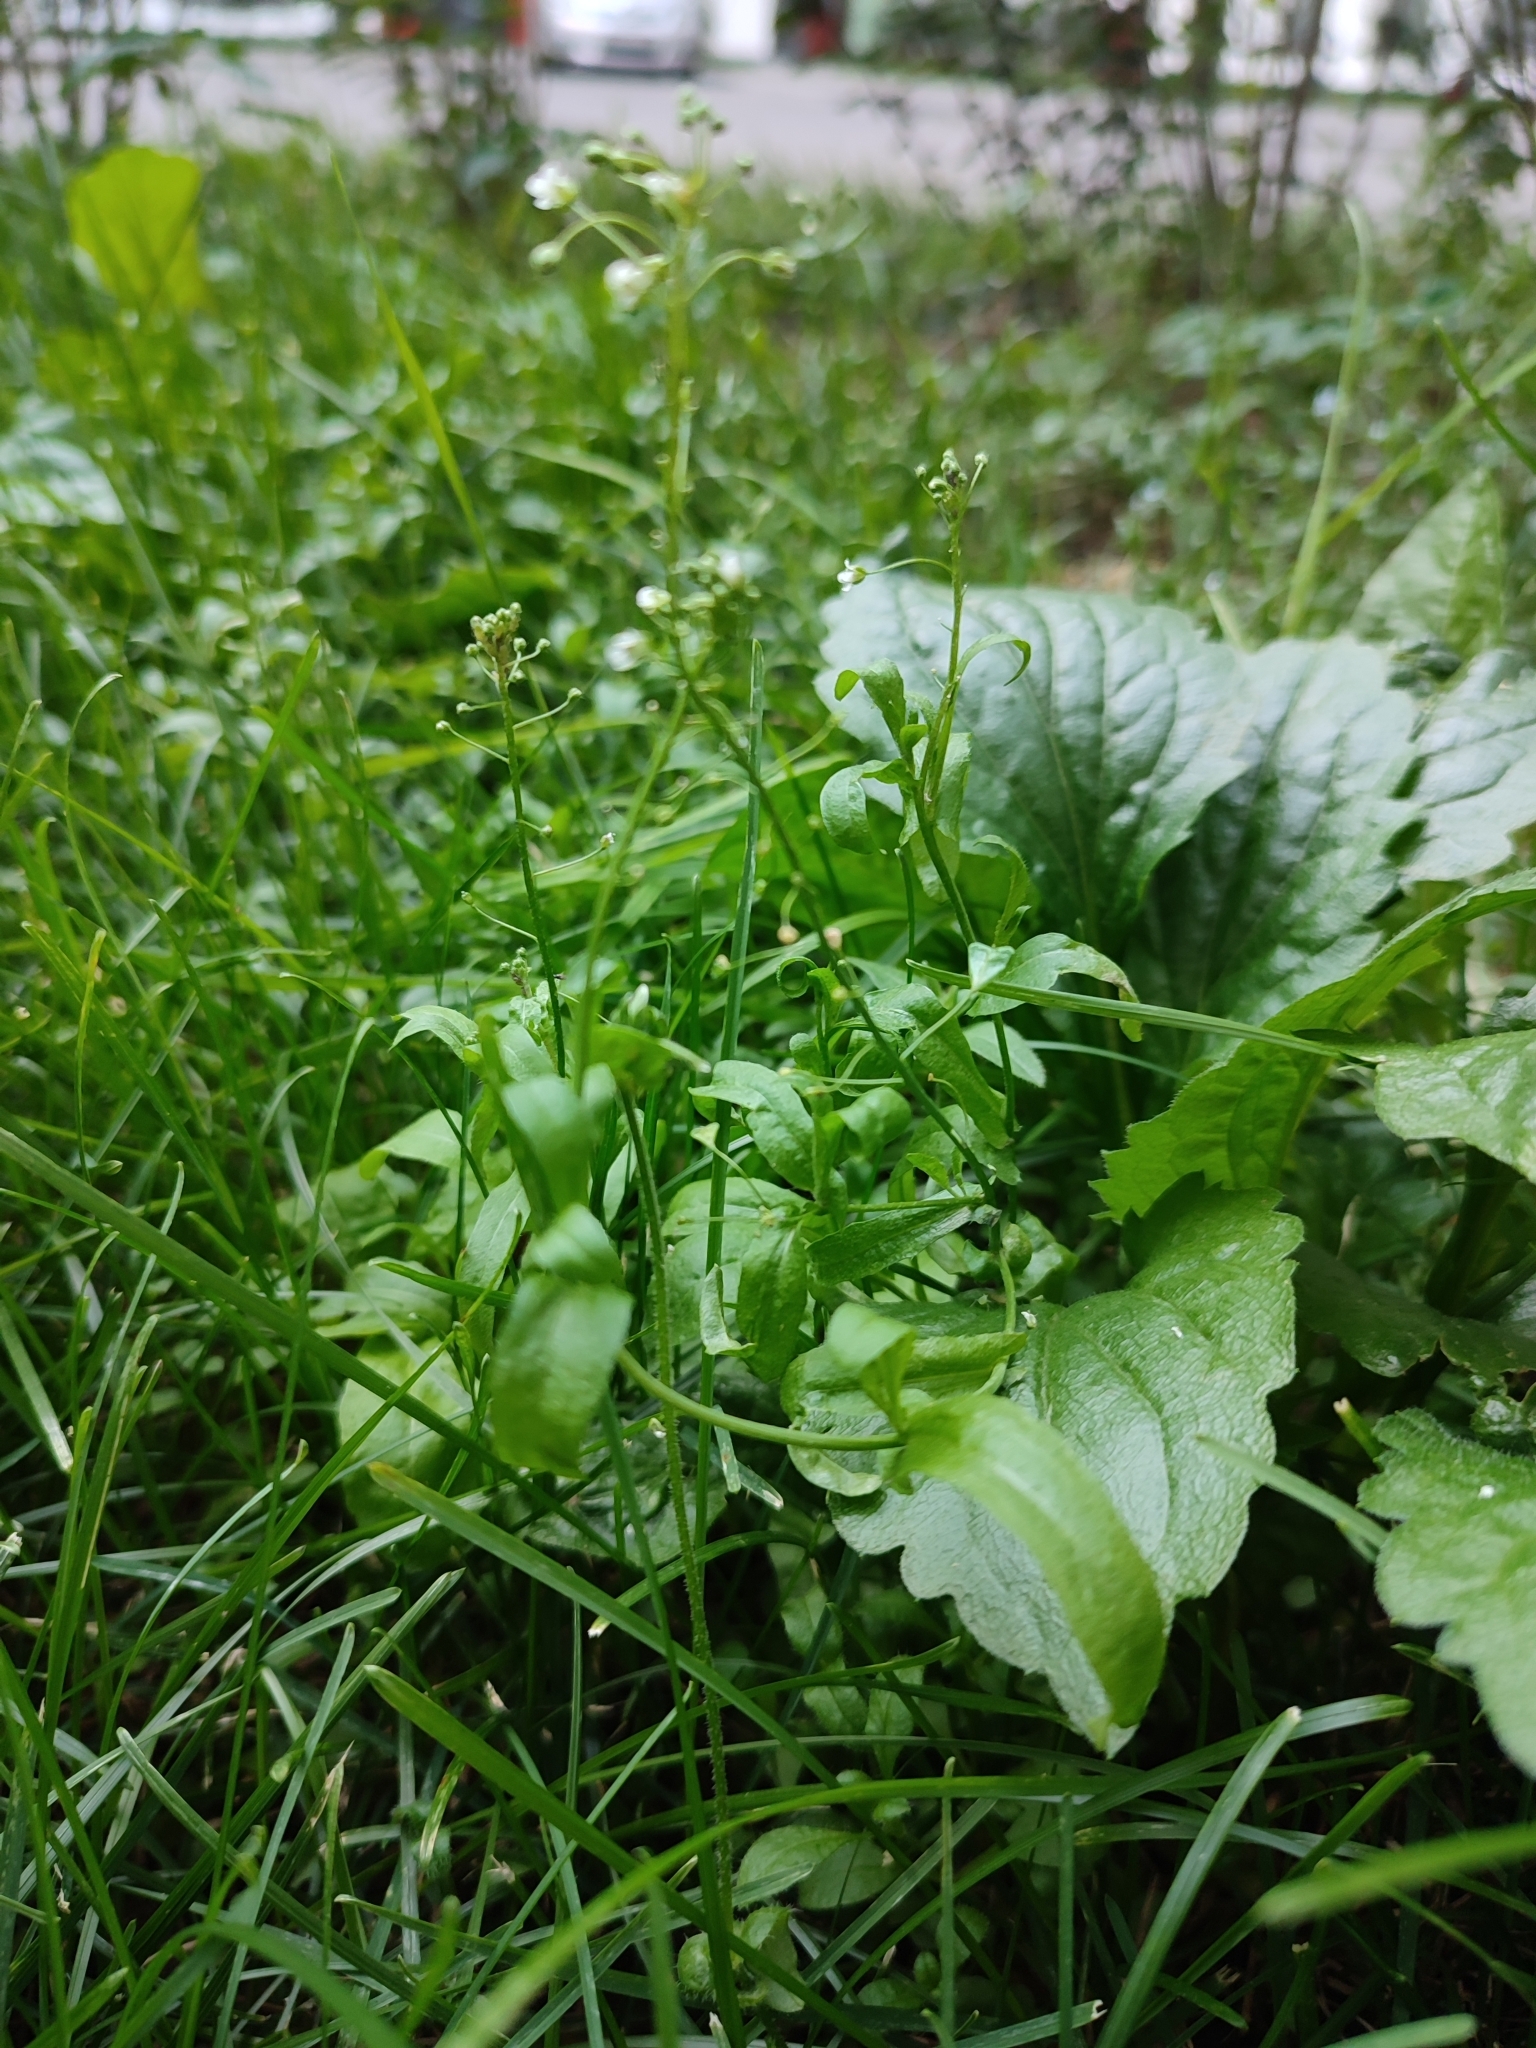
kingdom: Plantae
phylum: Tracheophyta
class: Magnoliopsida
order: Brassicales
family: Brassicaceae
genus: Capsella
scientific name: Capsella bursa-pastoris
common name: Shepherd's purse
